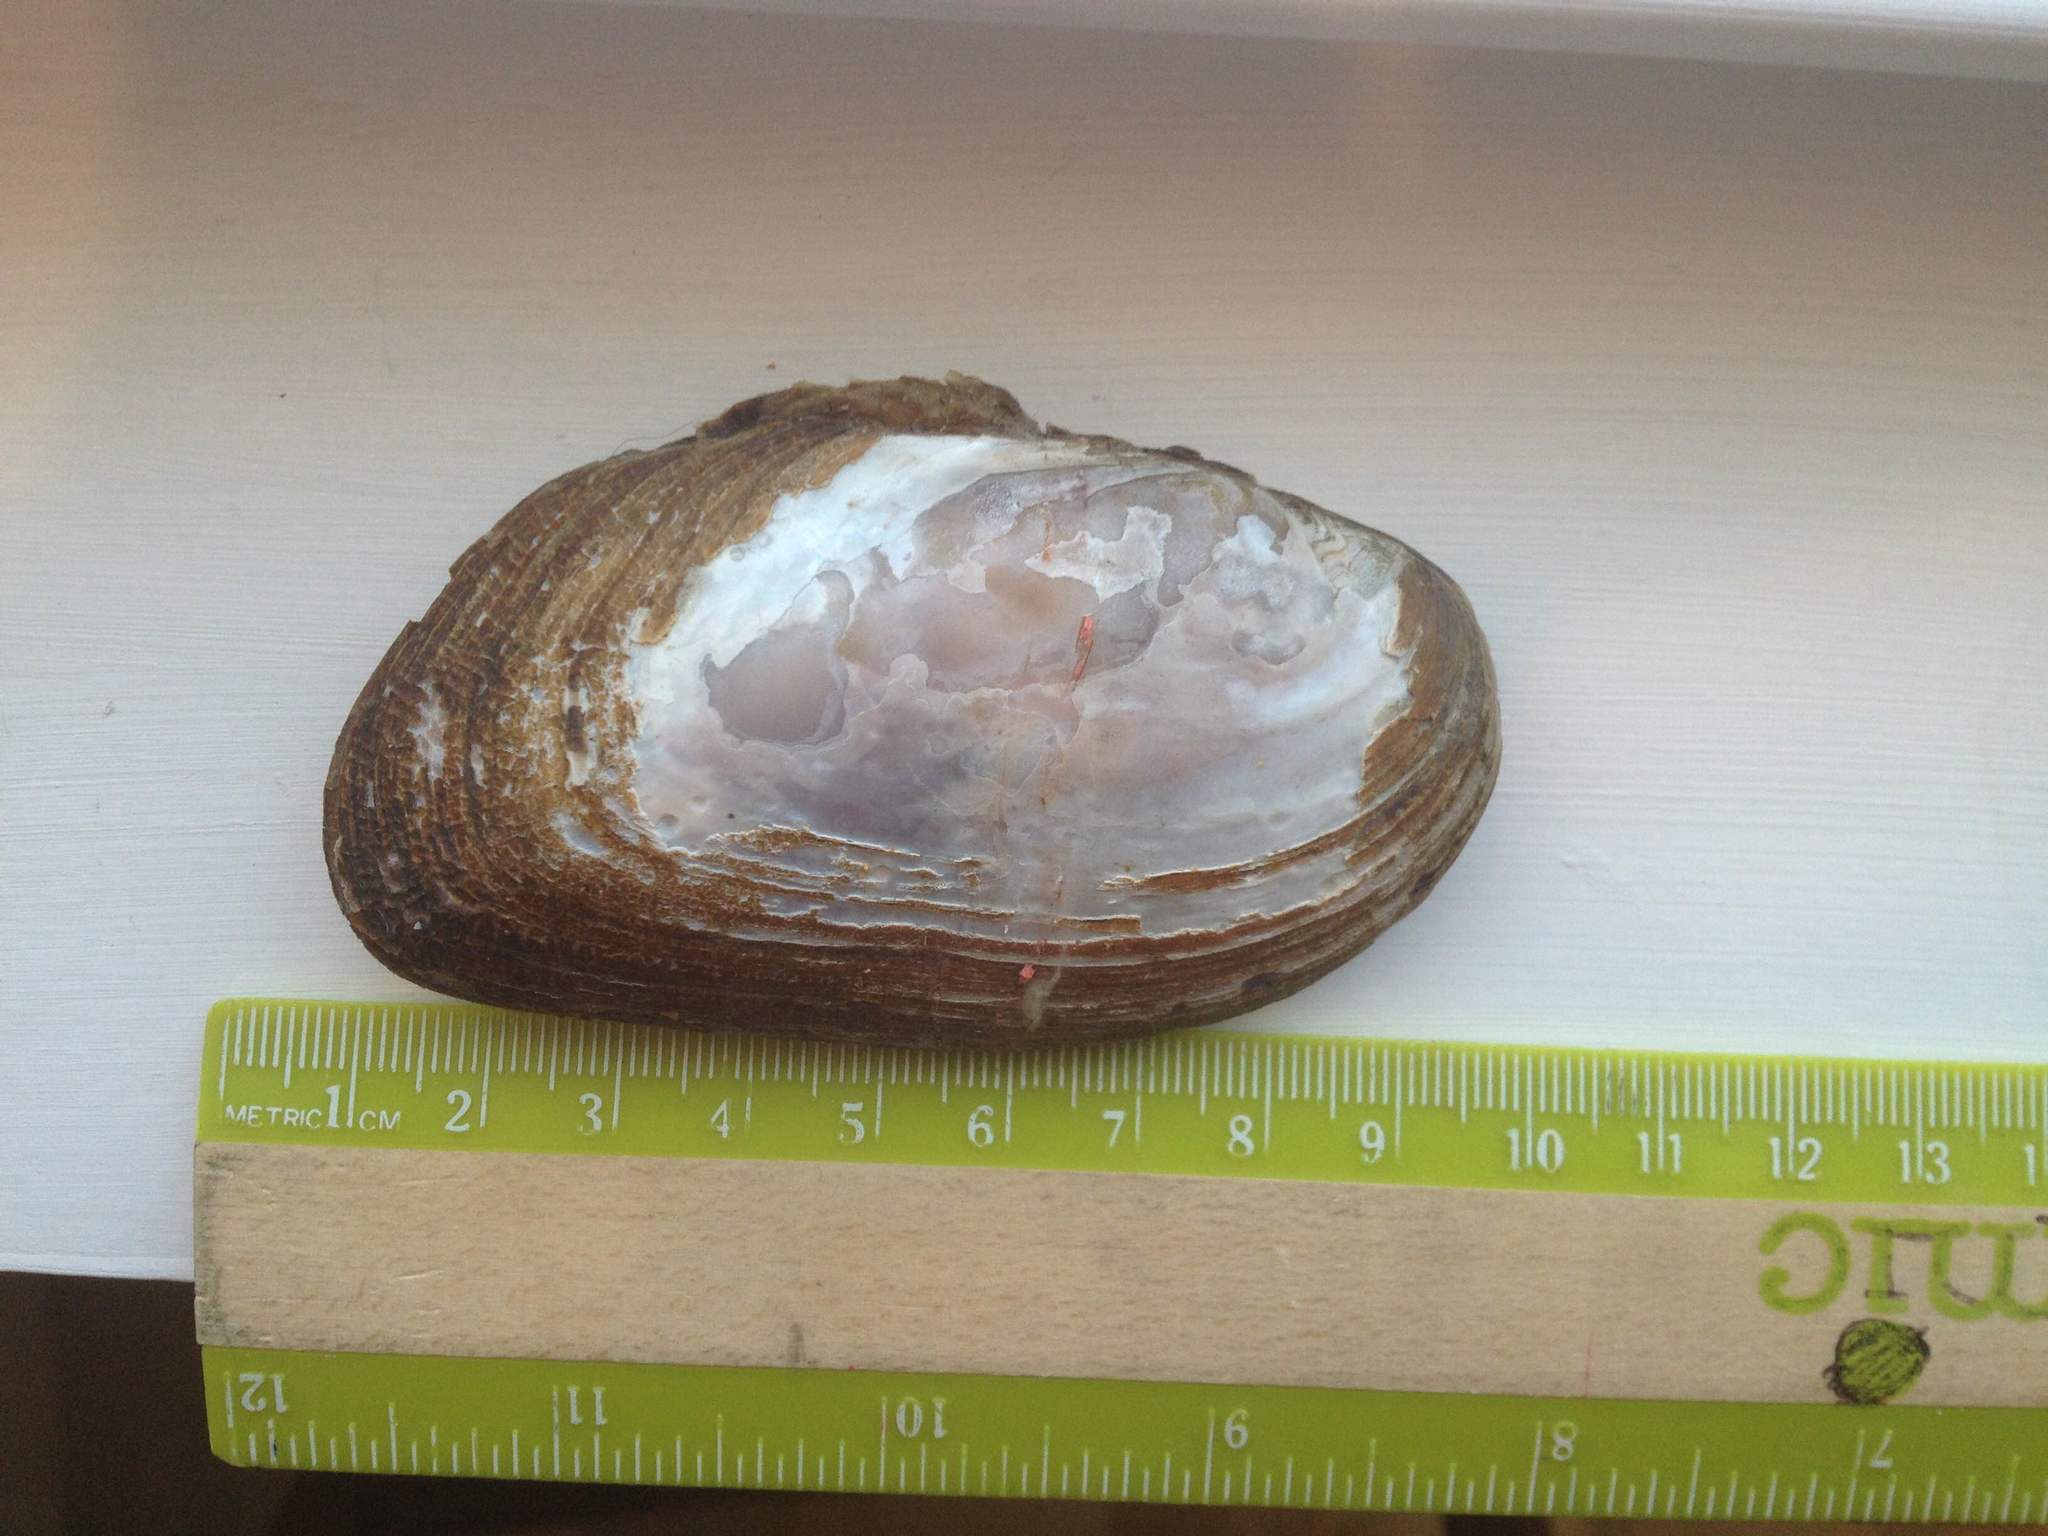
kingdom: Animalia
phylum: Mollusca
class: Bivalvia
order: Unionida
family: Unionidae
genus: Elliptio
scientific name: Elliptio complanata
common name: Eastern elliptio
